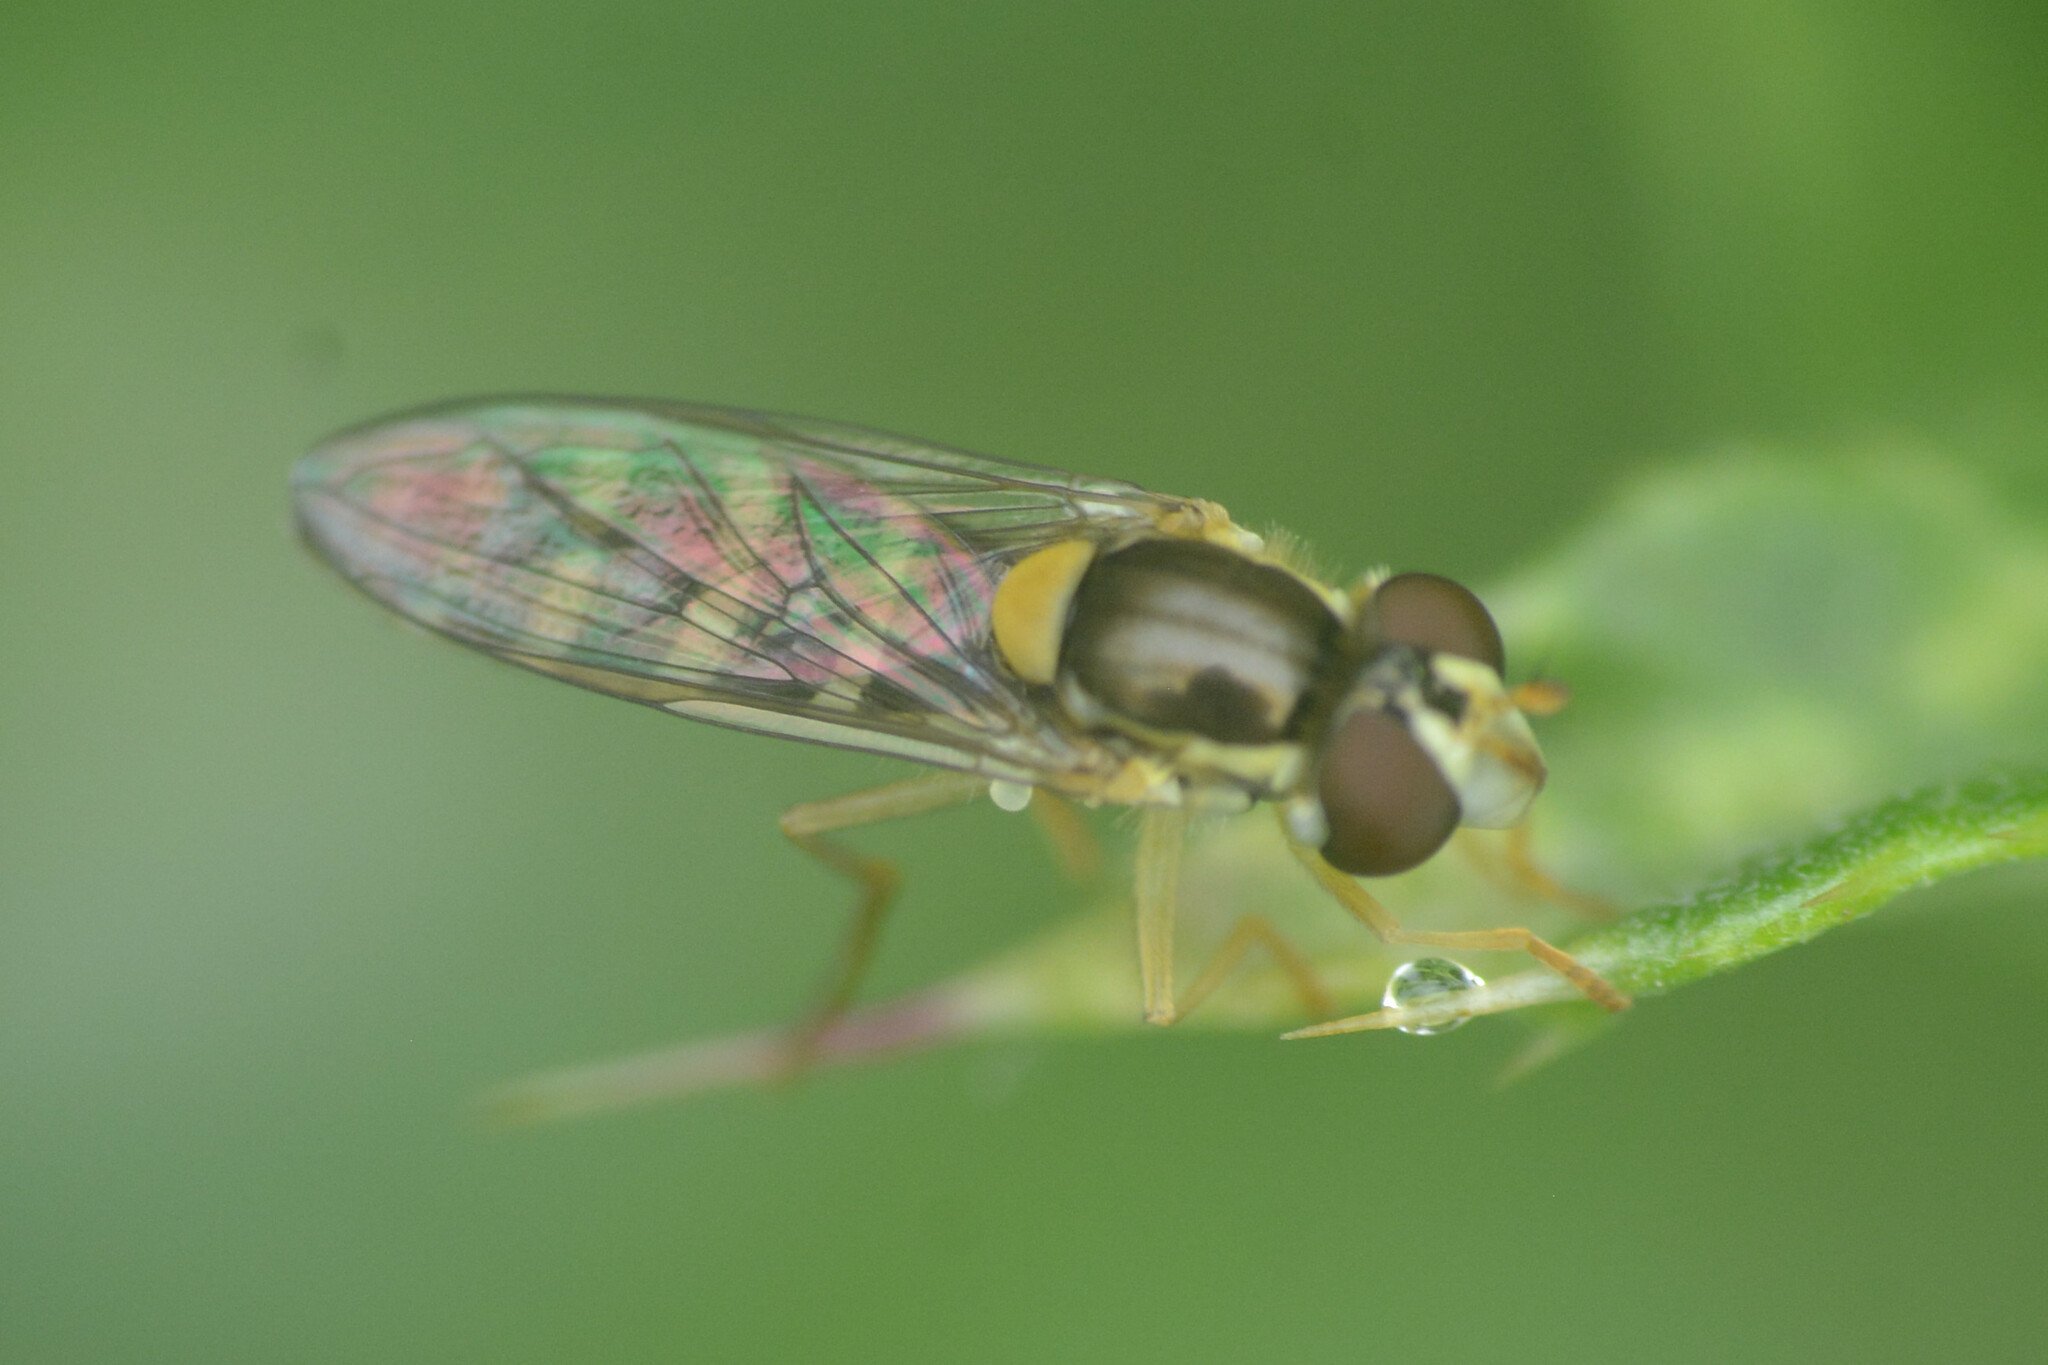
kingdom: Animalia
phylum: Arthropoda
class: Insecta
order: Diptera
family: Syrphidae
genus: Sphaerophoria
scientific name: Sphaerophoria
